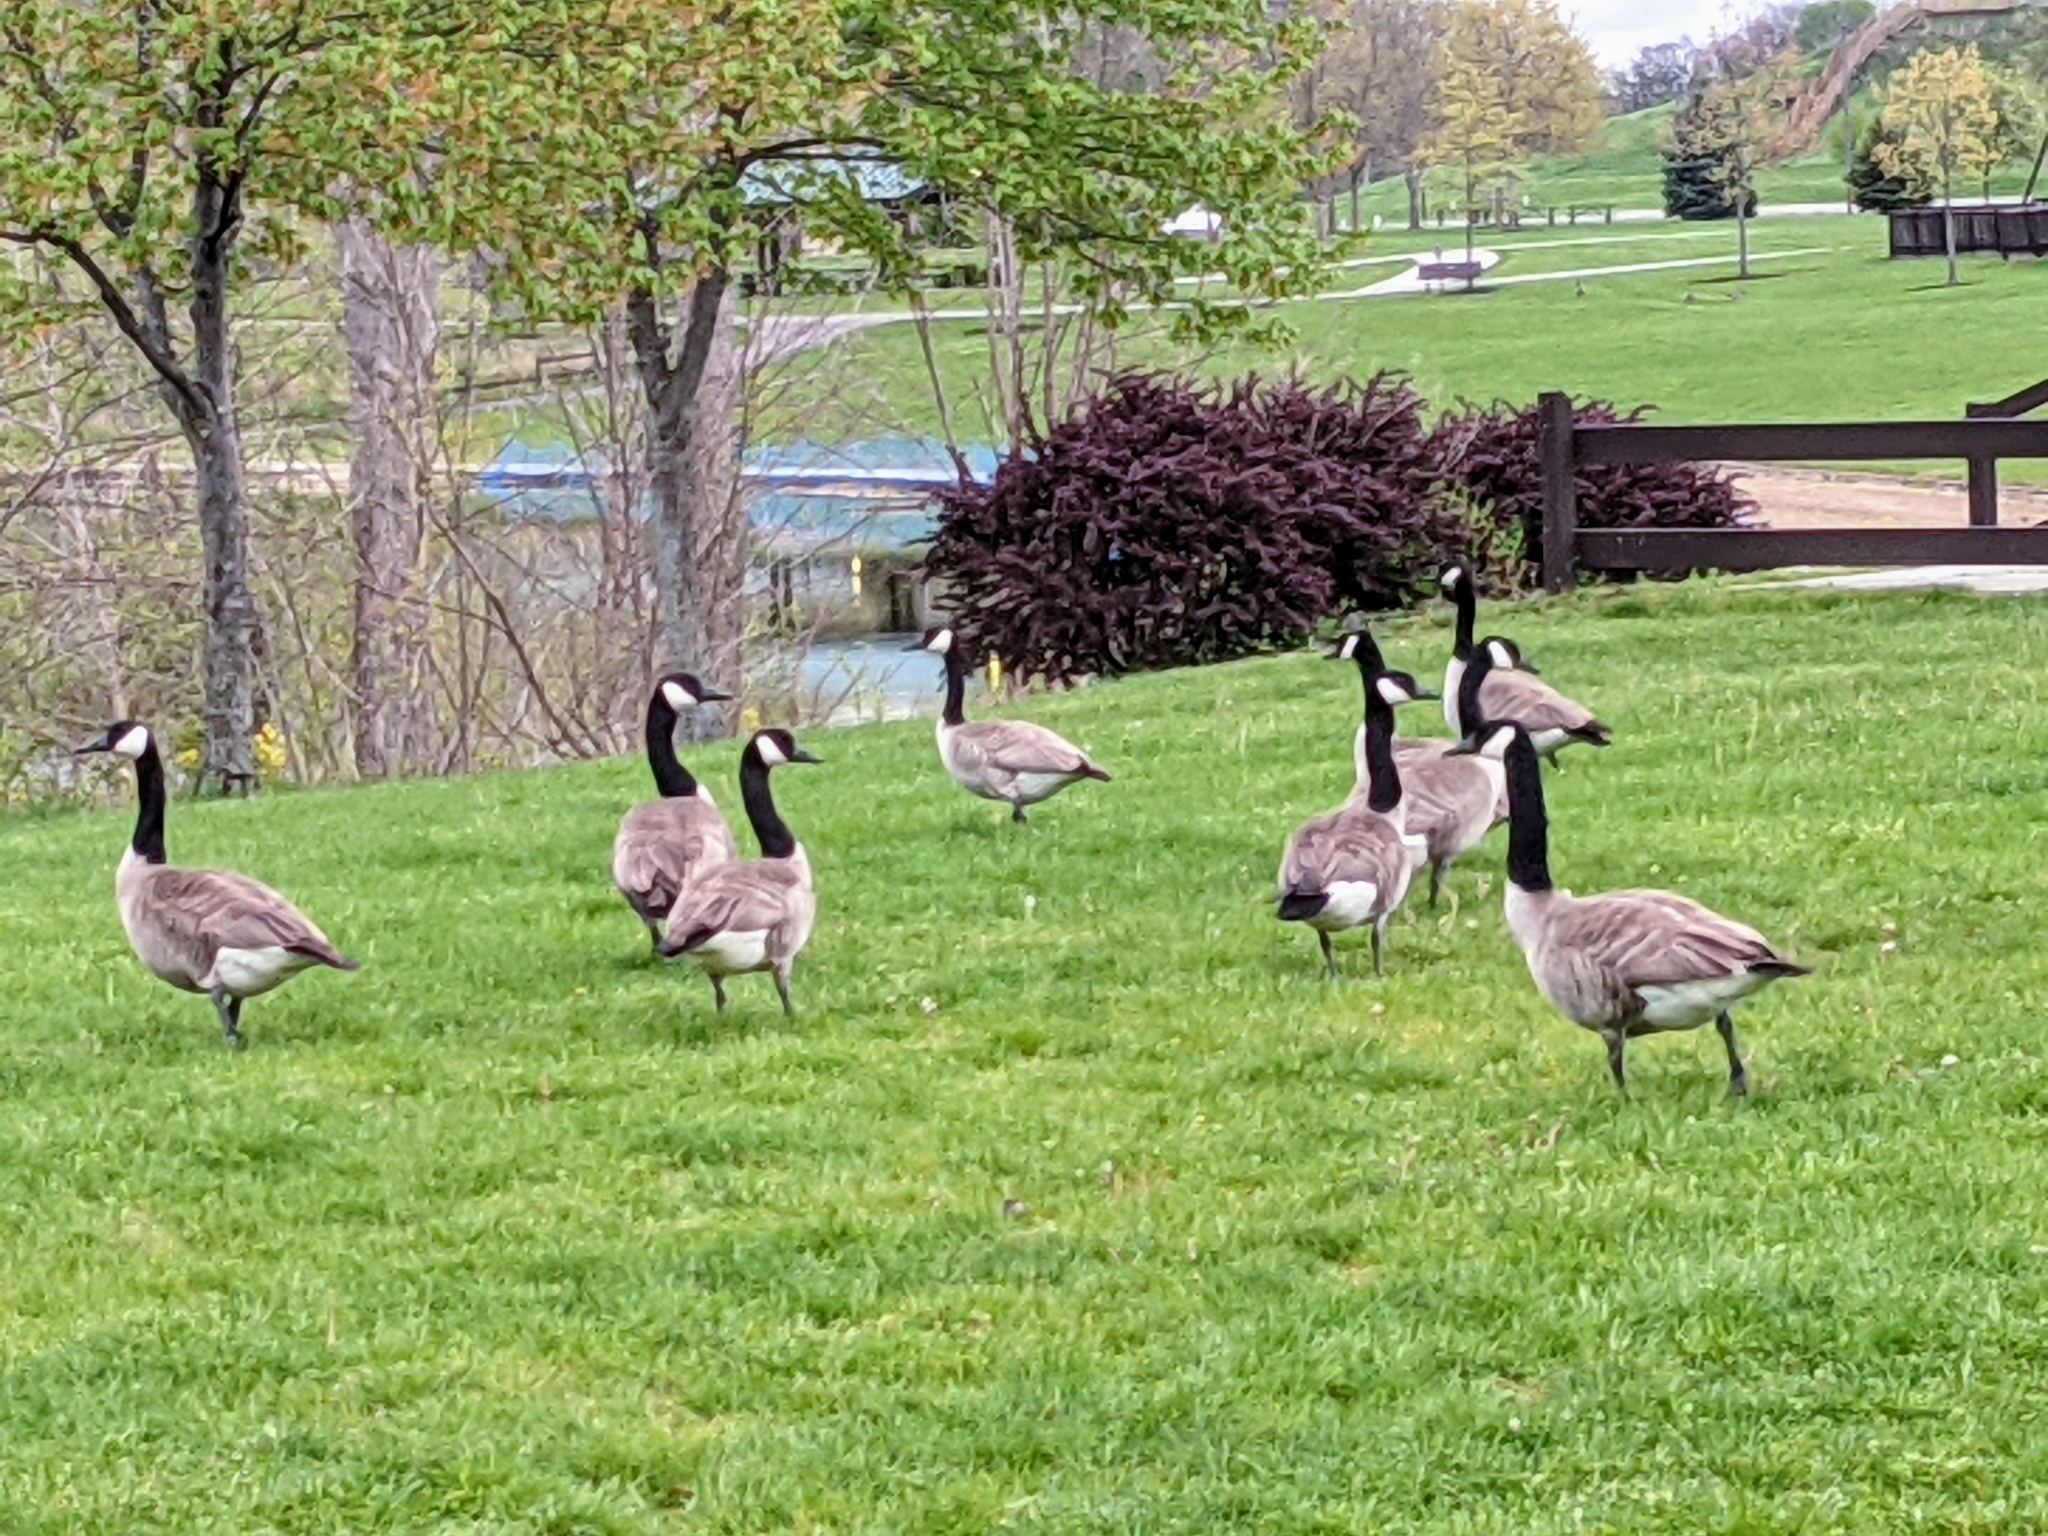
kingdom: Animalia
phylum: Chordata
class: Aves
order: Anseriformes
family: Anatidae
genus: Branta
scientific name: Branta canadensis
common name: Canada goose
